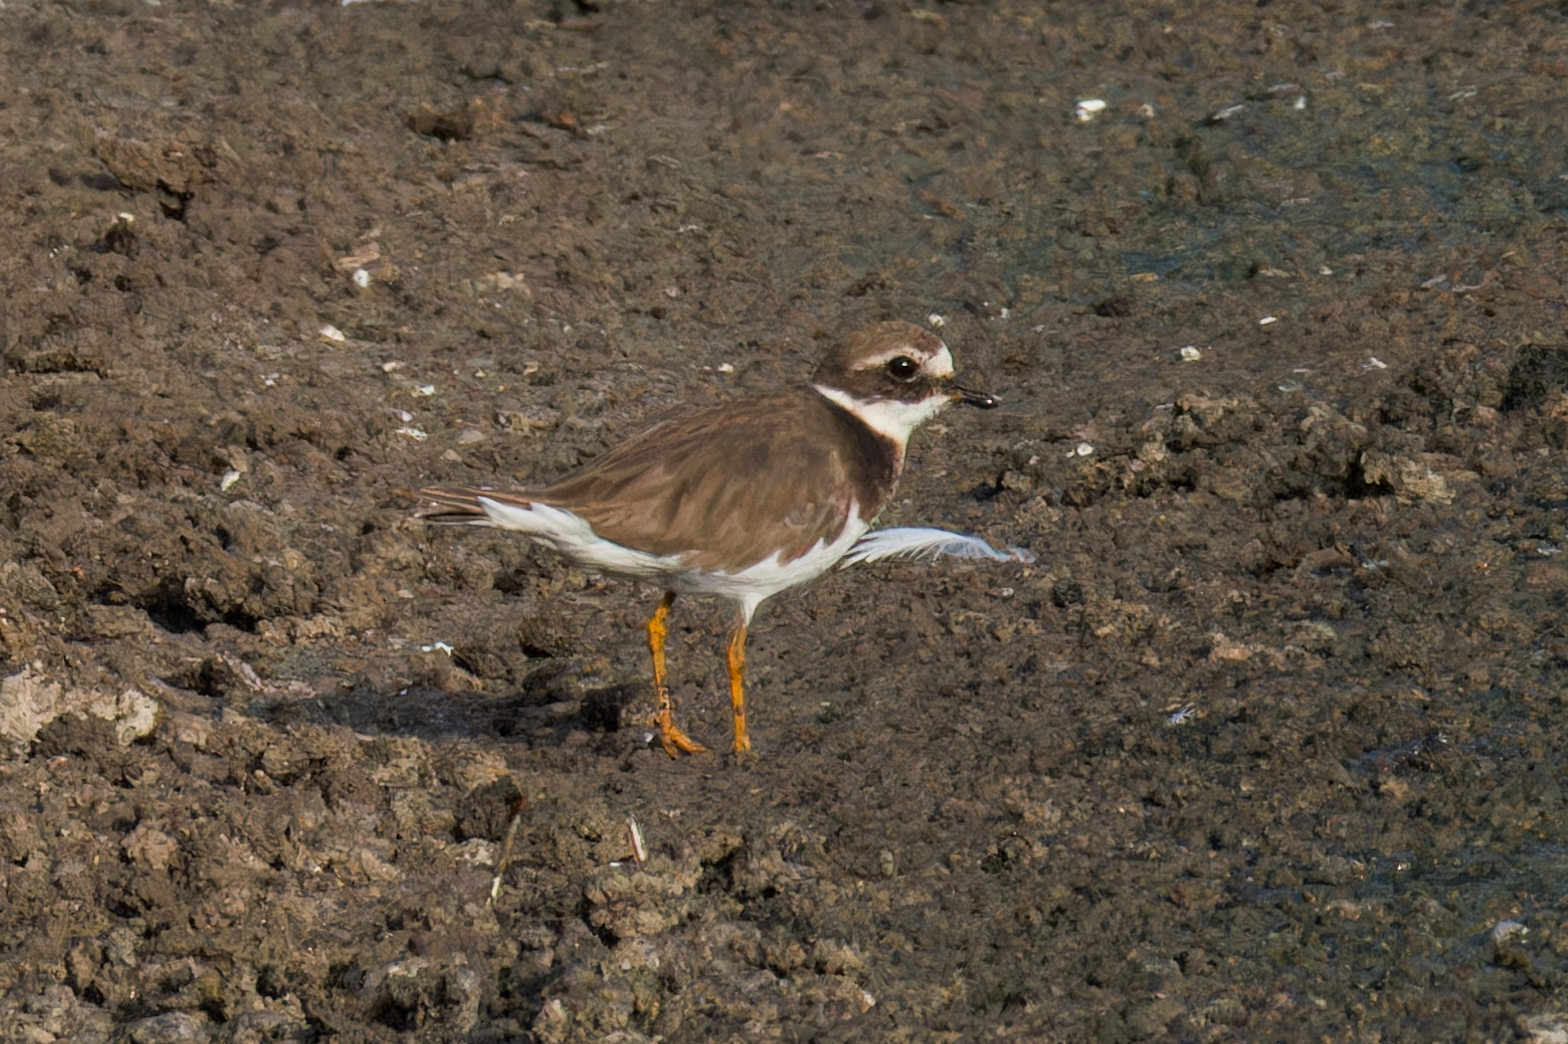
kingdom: Animalia
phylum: Chordata
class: Aves
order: Charadriiformes
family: Charadriidae
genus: Charadrius
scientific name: Charadrius hiaticula
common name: Common ringed plover
